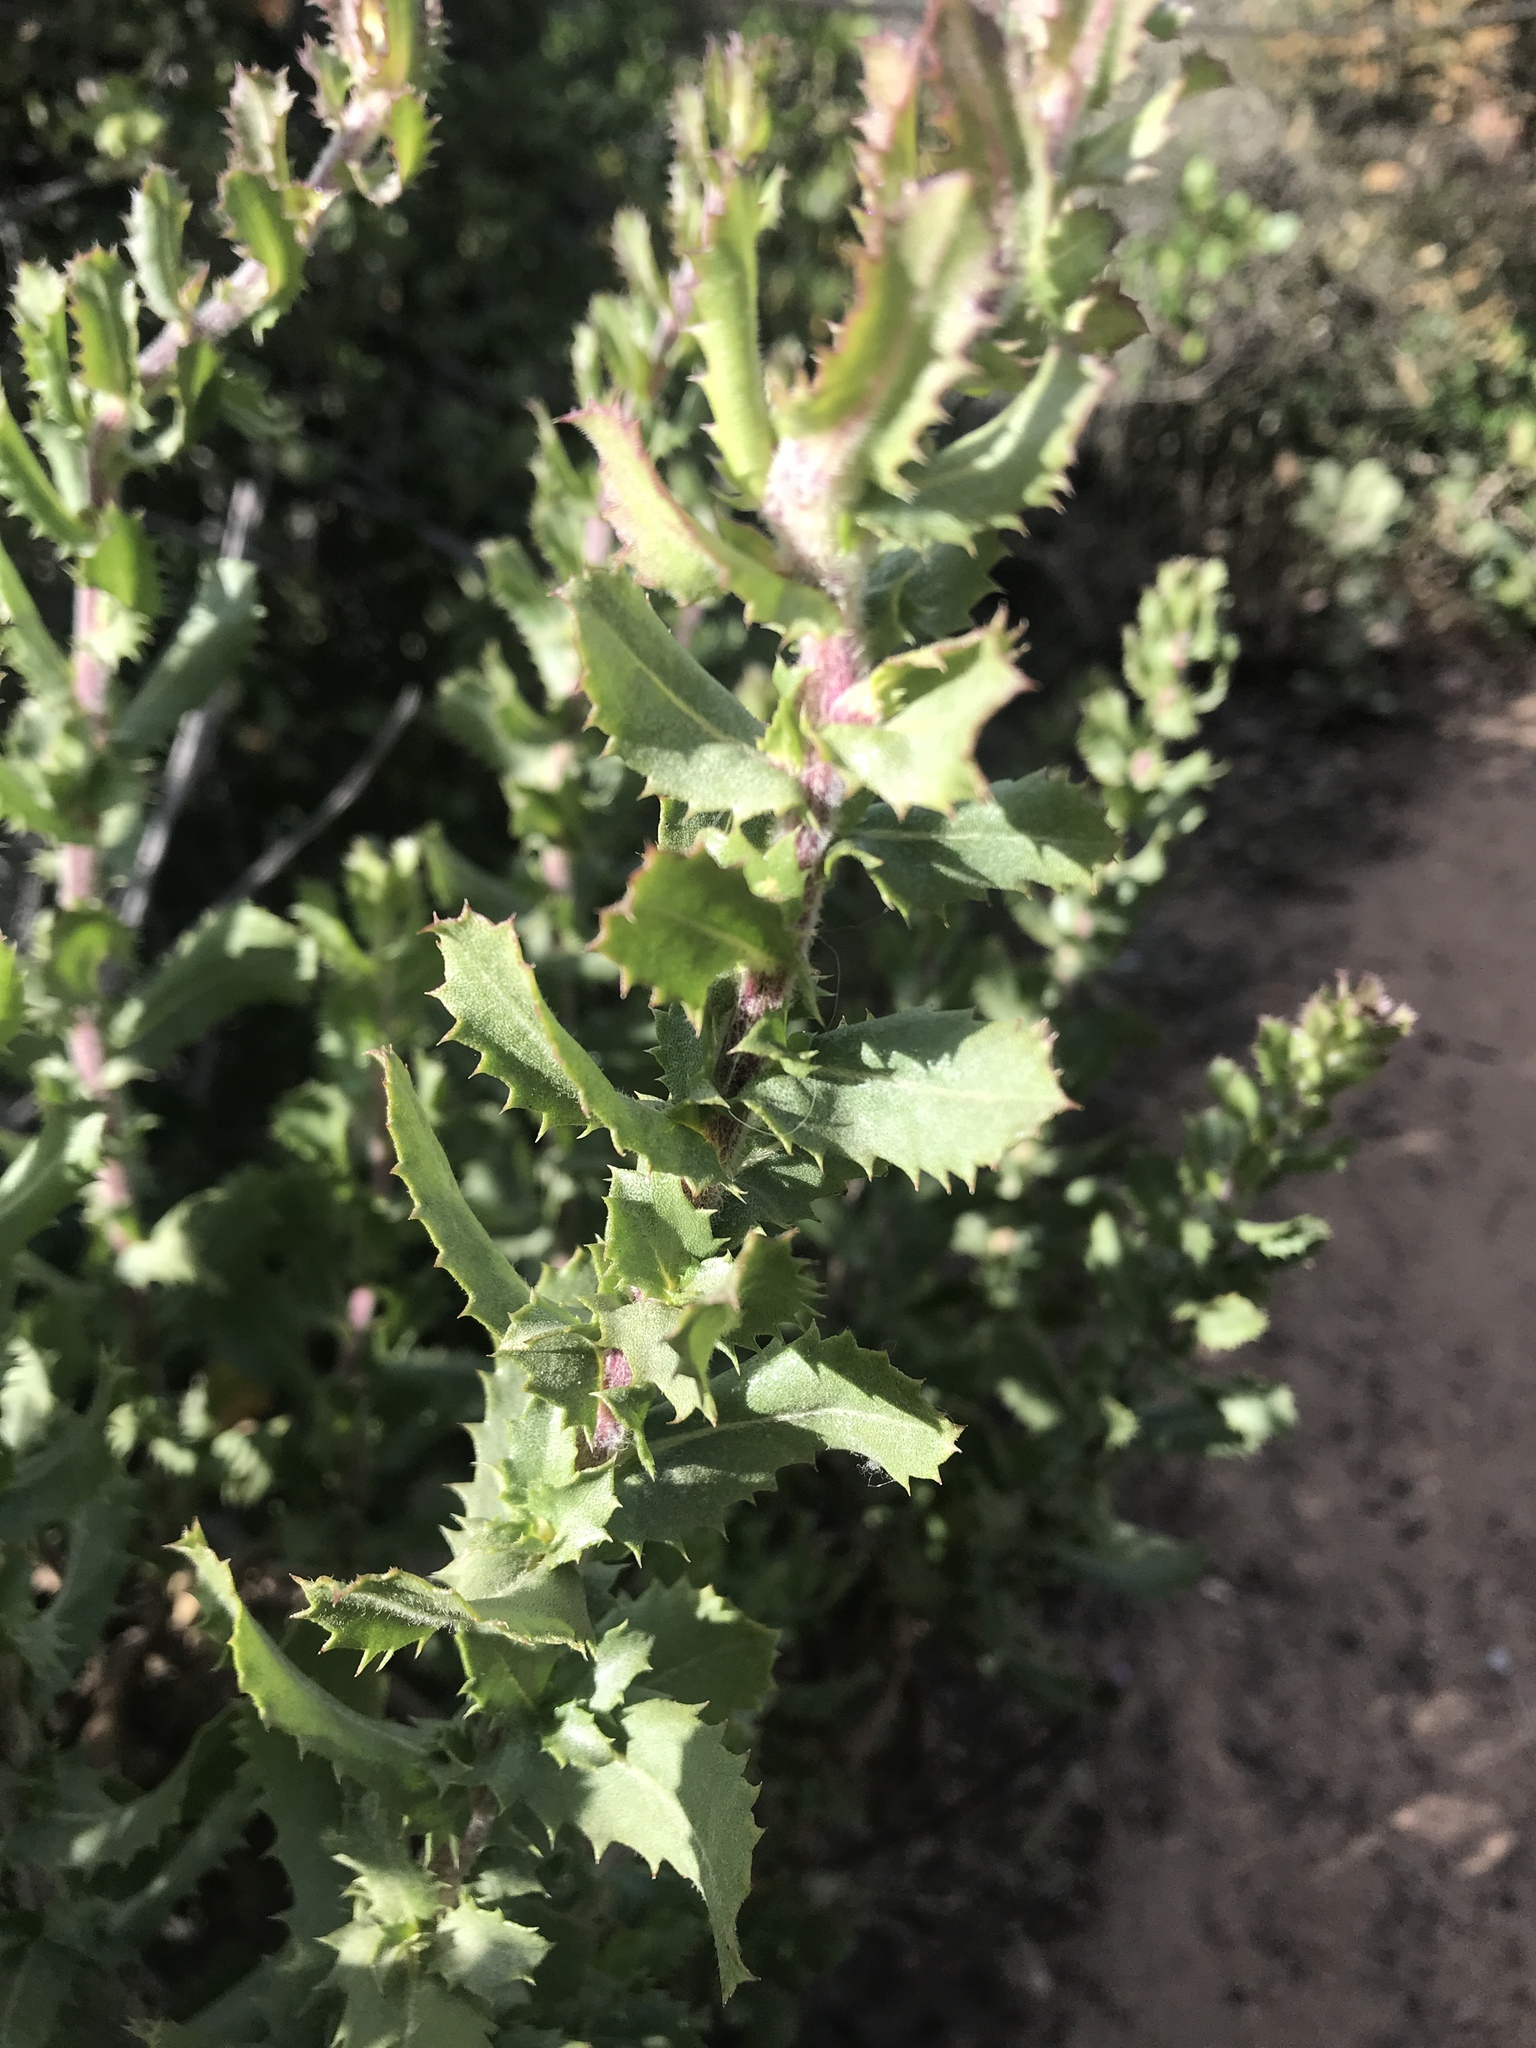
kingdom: Plantae
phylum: Tracheophyta
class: Magnoliopsida
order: Asterales
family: Asteraceae
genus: Hazardia
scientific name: Hazardia squarrosa
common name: Saw-tooth goldenbush
